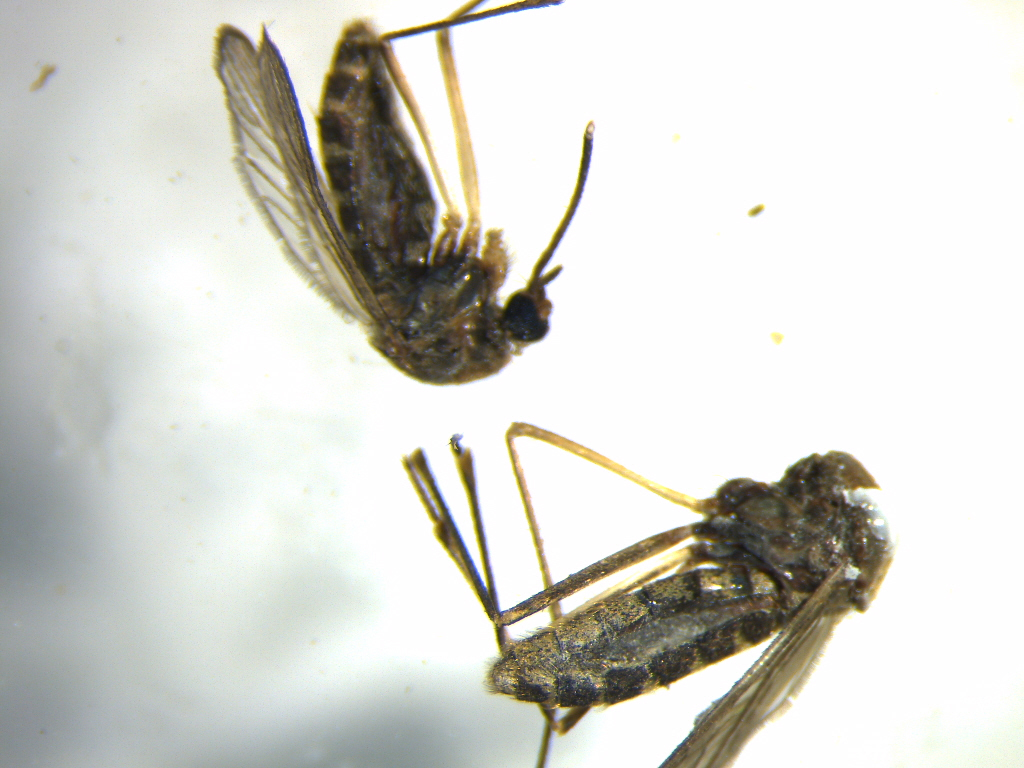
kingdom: Animalia
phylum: Arthropoda
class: Insecta
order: Diptera
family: Culicidae
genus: Culex
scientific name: Culex quinquefasciatus
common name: Southern house mosquito
